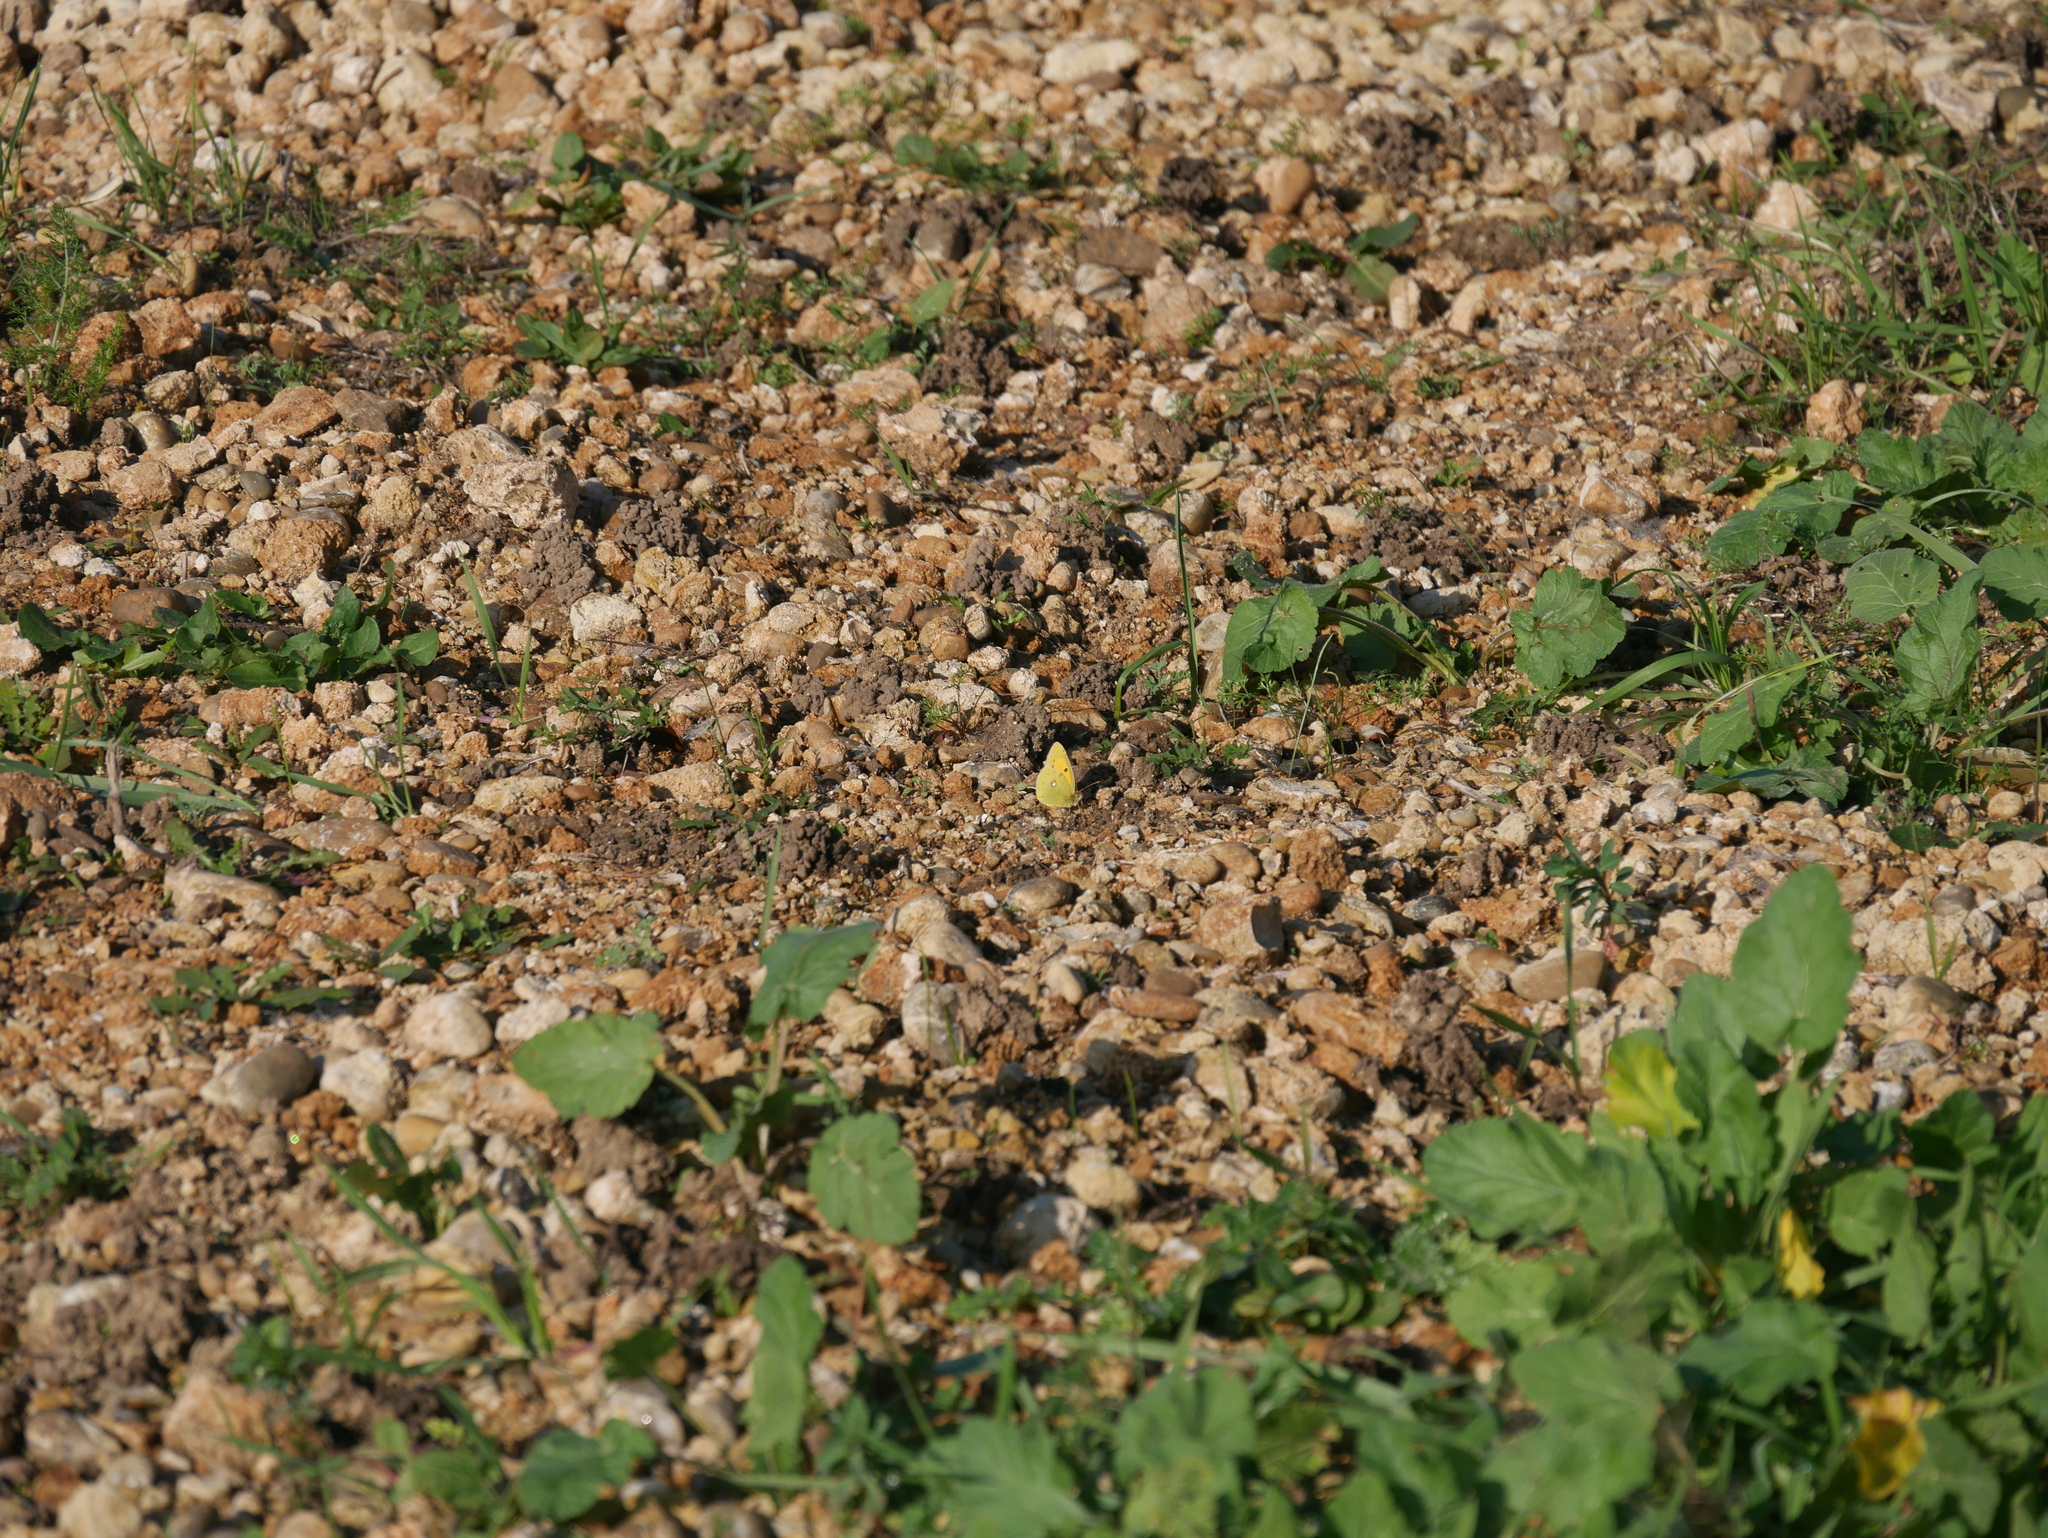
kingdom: Animalia
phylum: Arthropoda
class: Insecta
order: Lepidoptera
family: Pieridae
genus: Colias
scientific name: Colias croceus
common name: Clouded yellow
